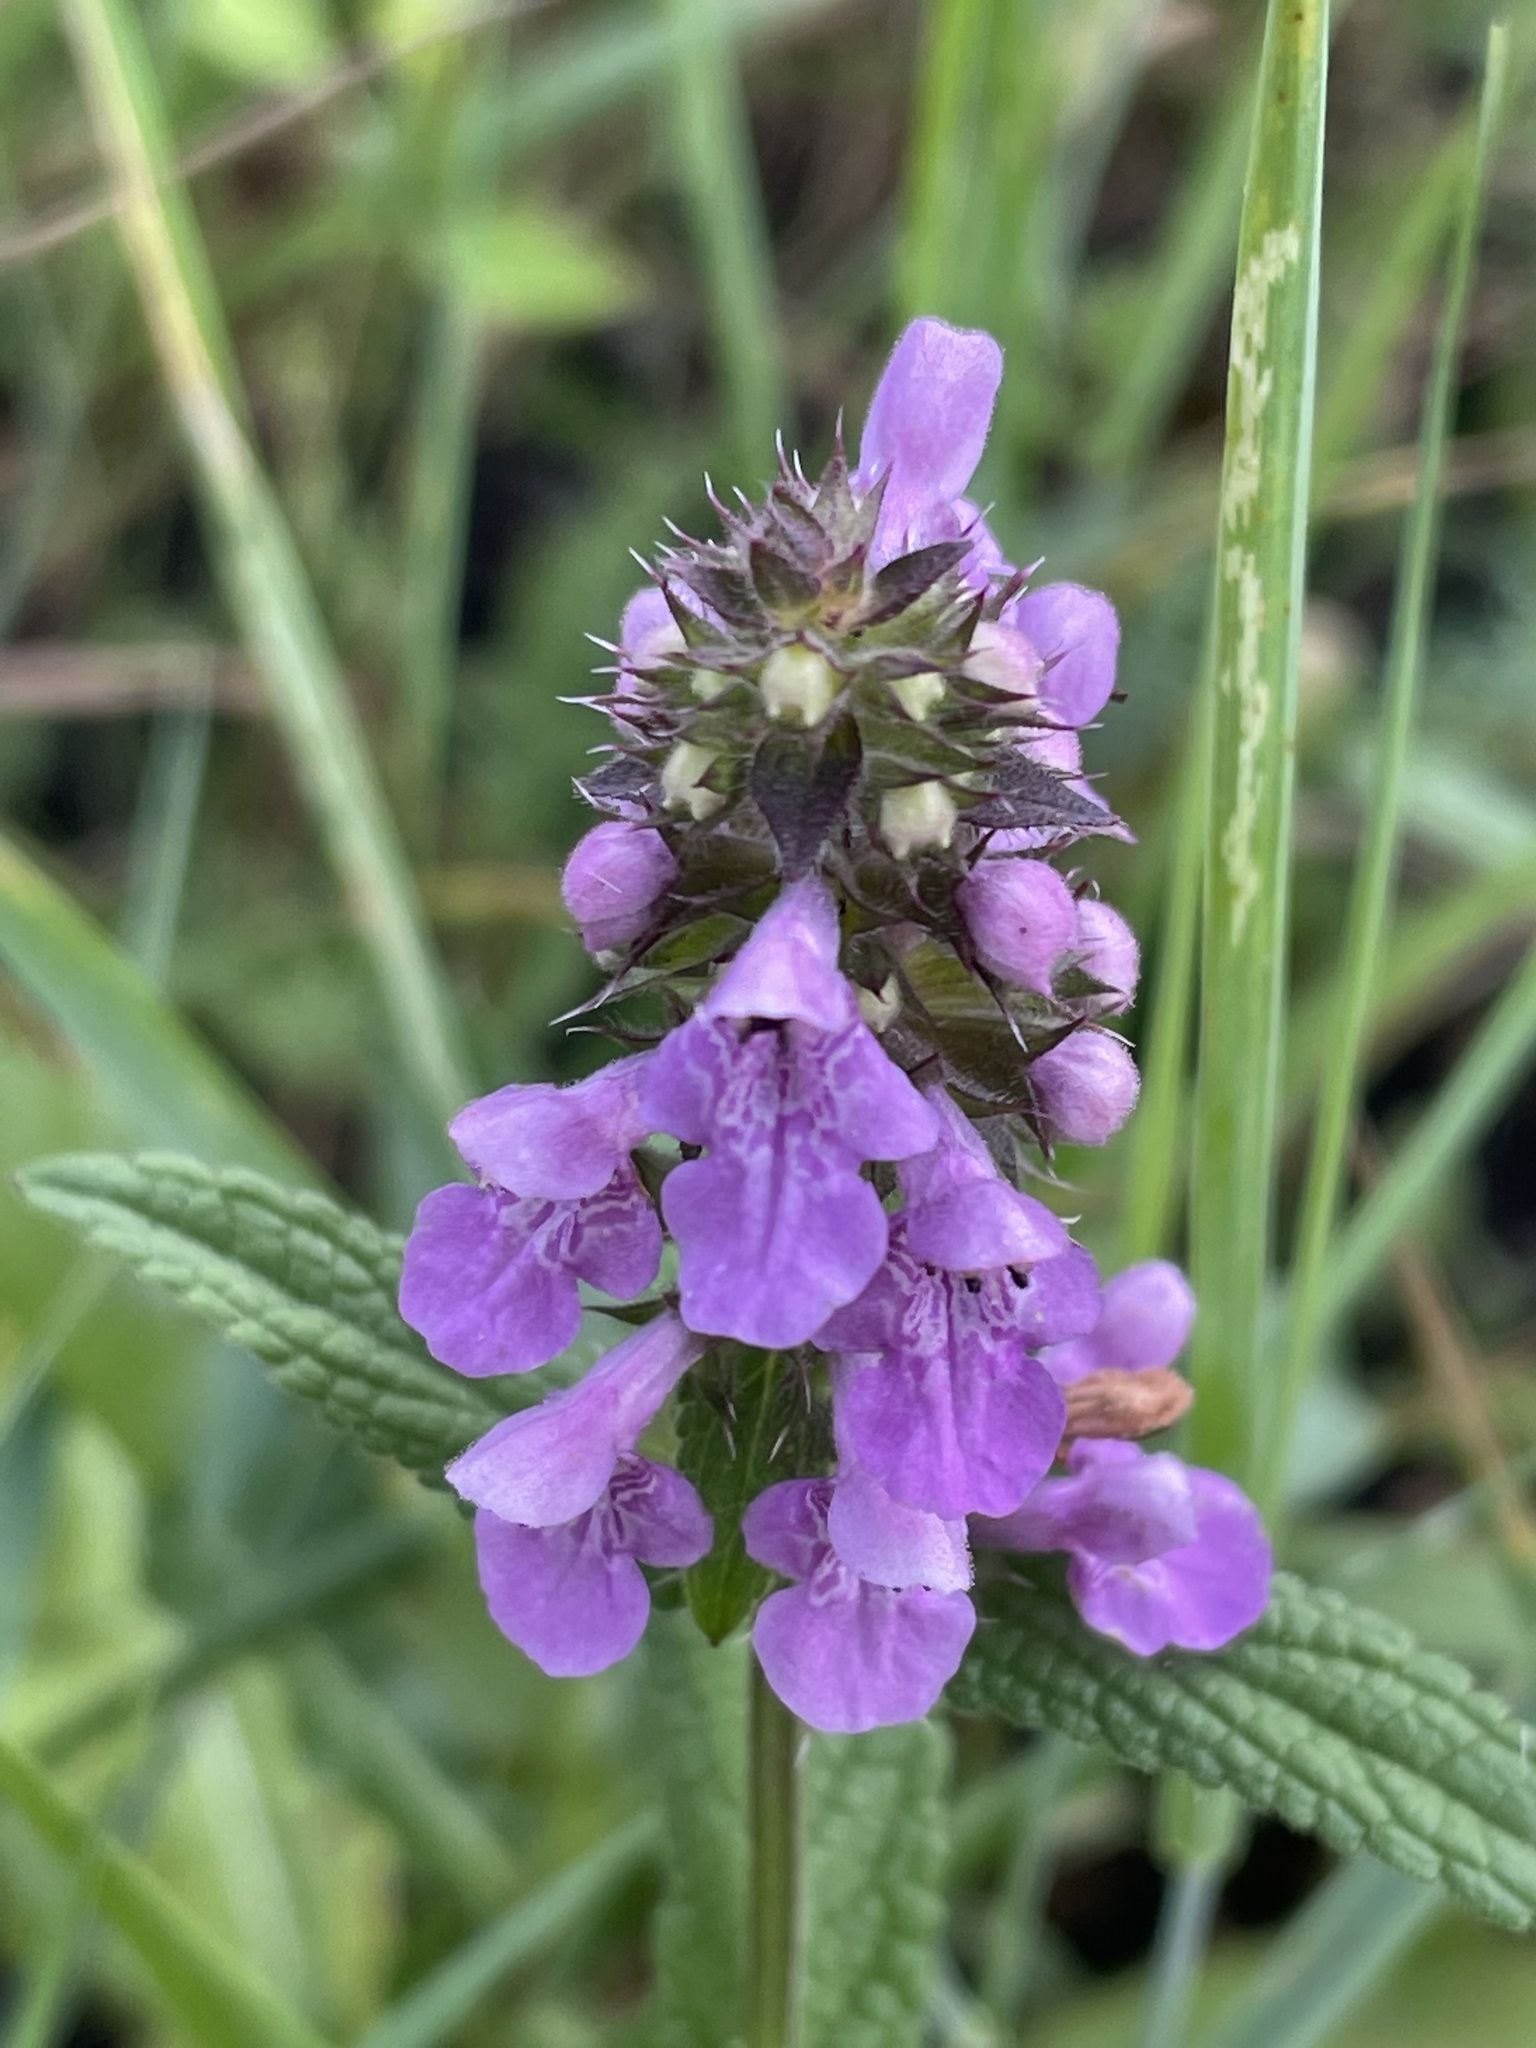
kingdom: Plantae
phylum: Tracheophyta
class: Magnoliopsida
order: Lamiales
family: Lamiaceae
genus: Stachys
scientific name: Stachys palustris
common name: Marsh woundwort
